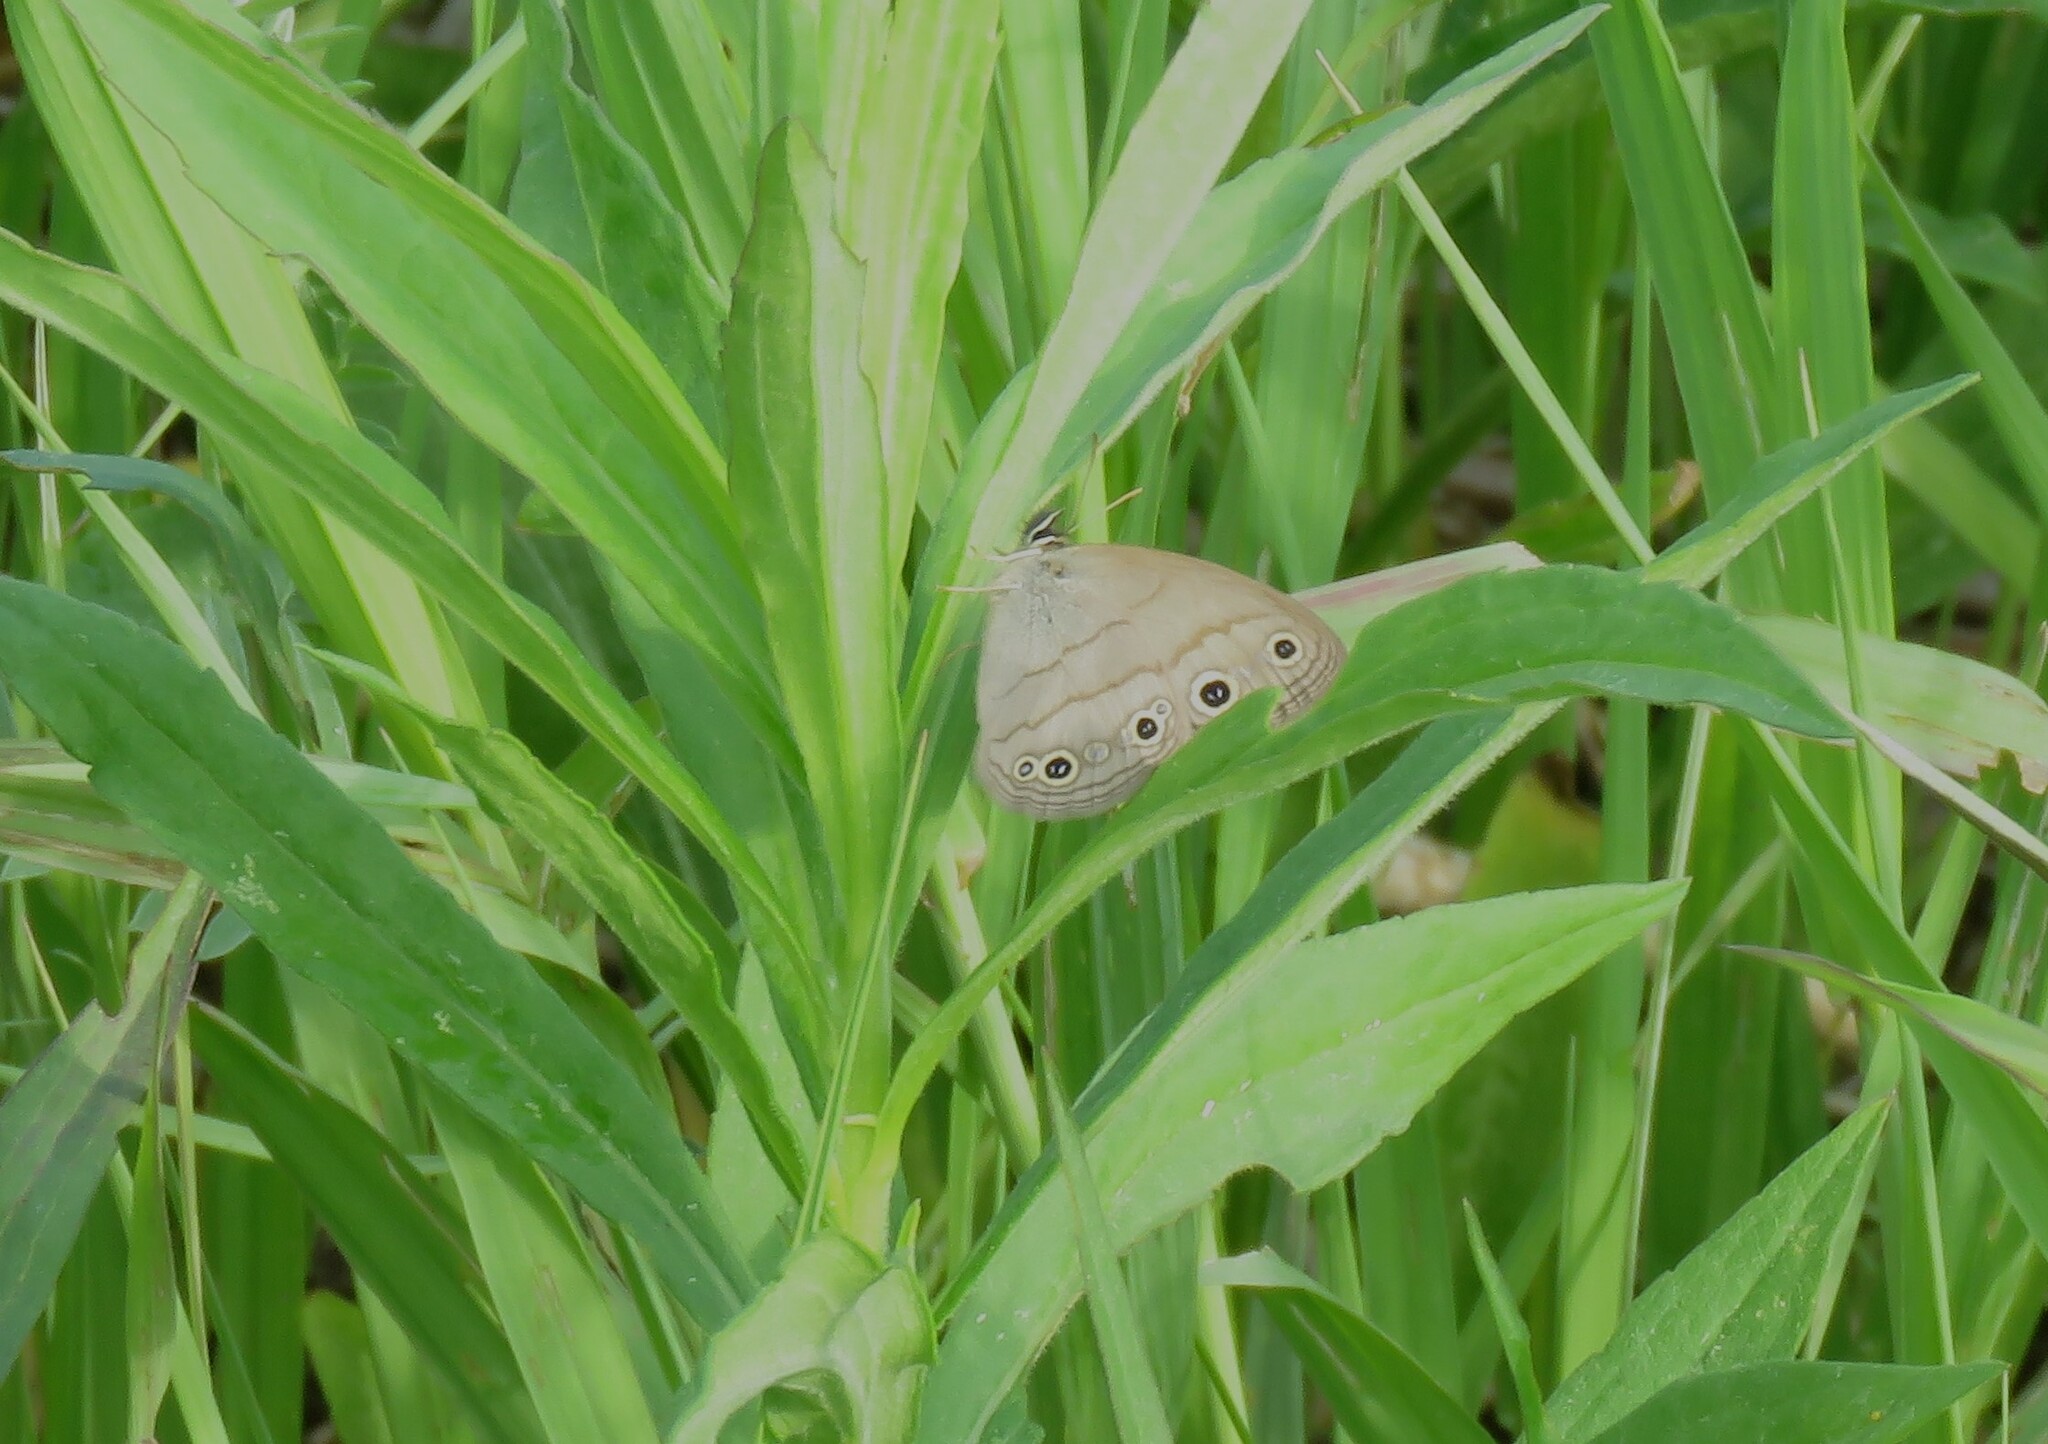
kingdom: Animalia
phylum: Arthropoda
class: Insecta
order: Lepidoptera
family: Nymphalidae
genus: Euptychia
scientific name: Euptychia cymela
